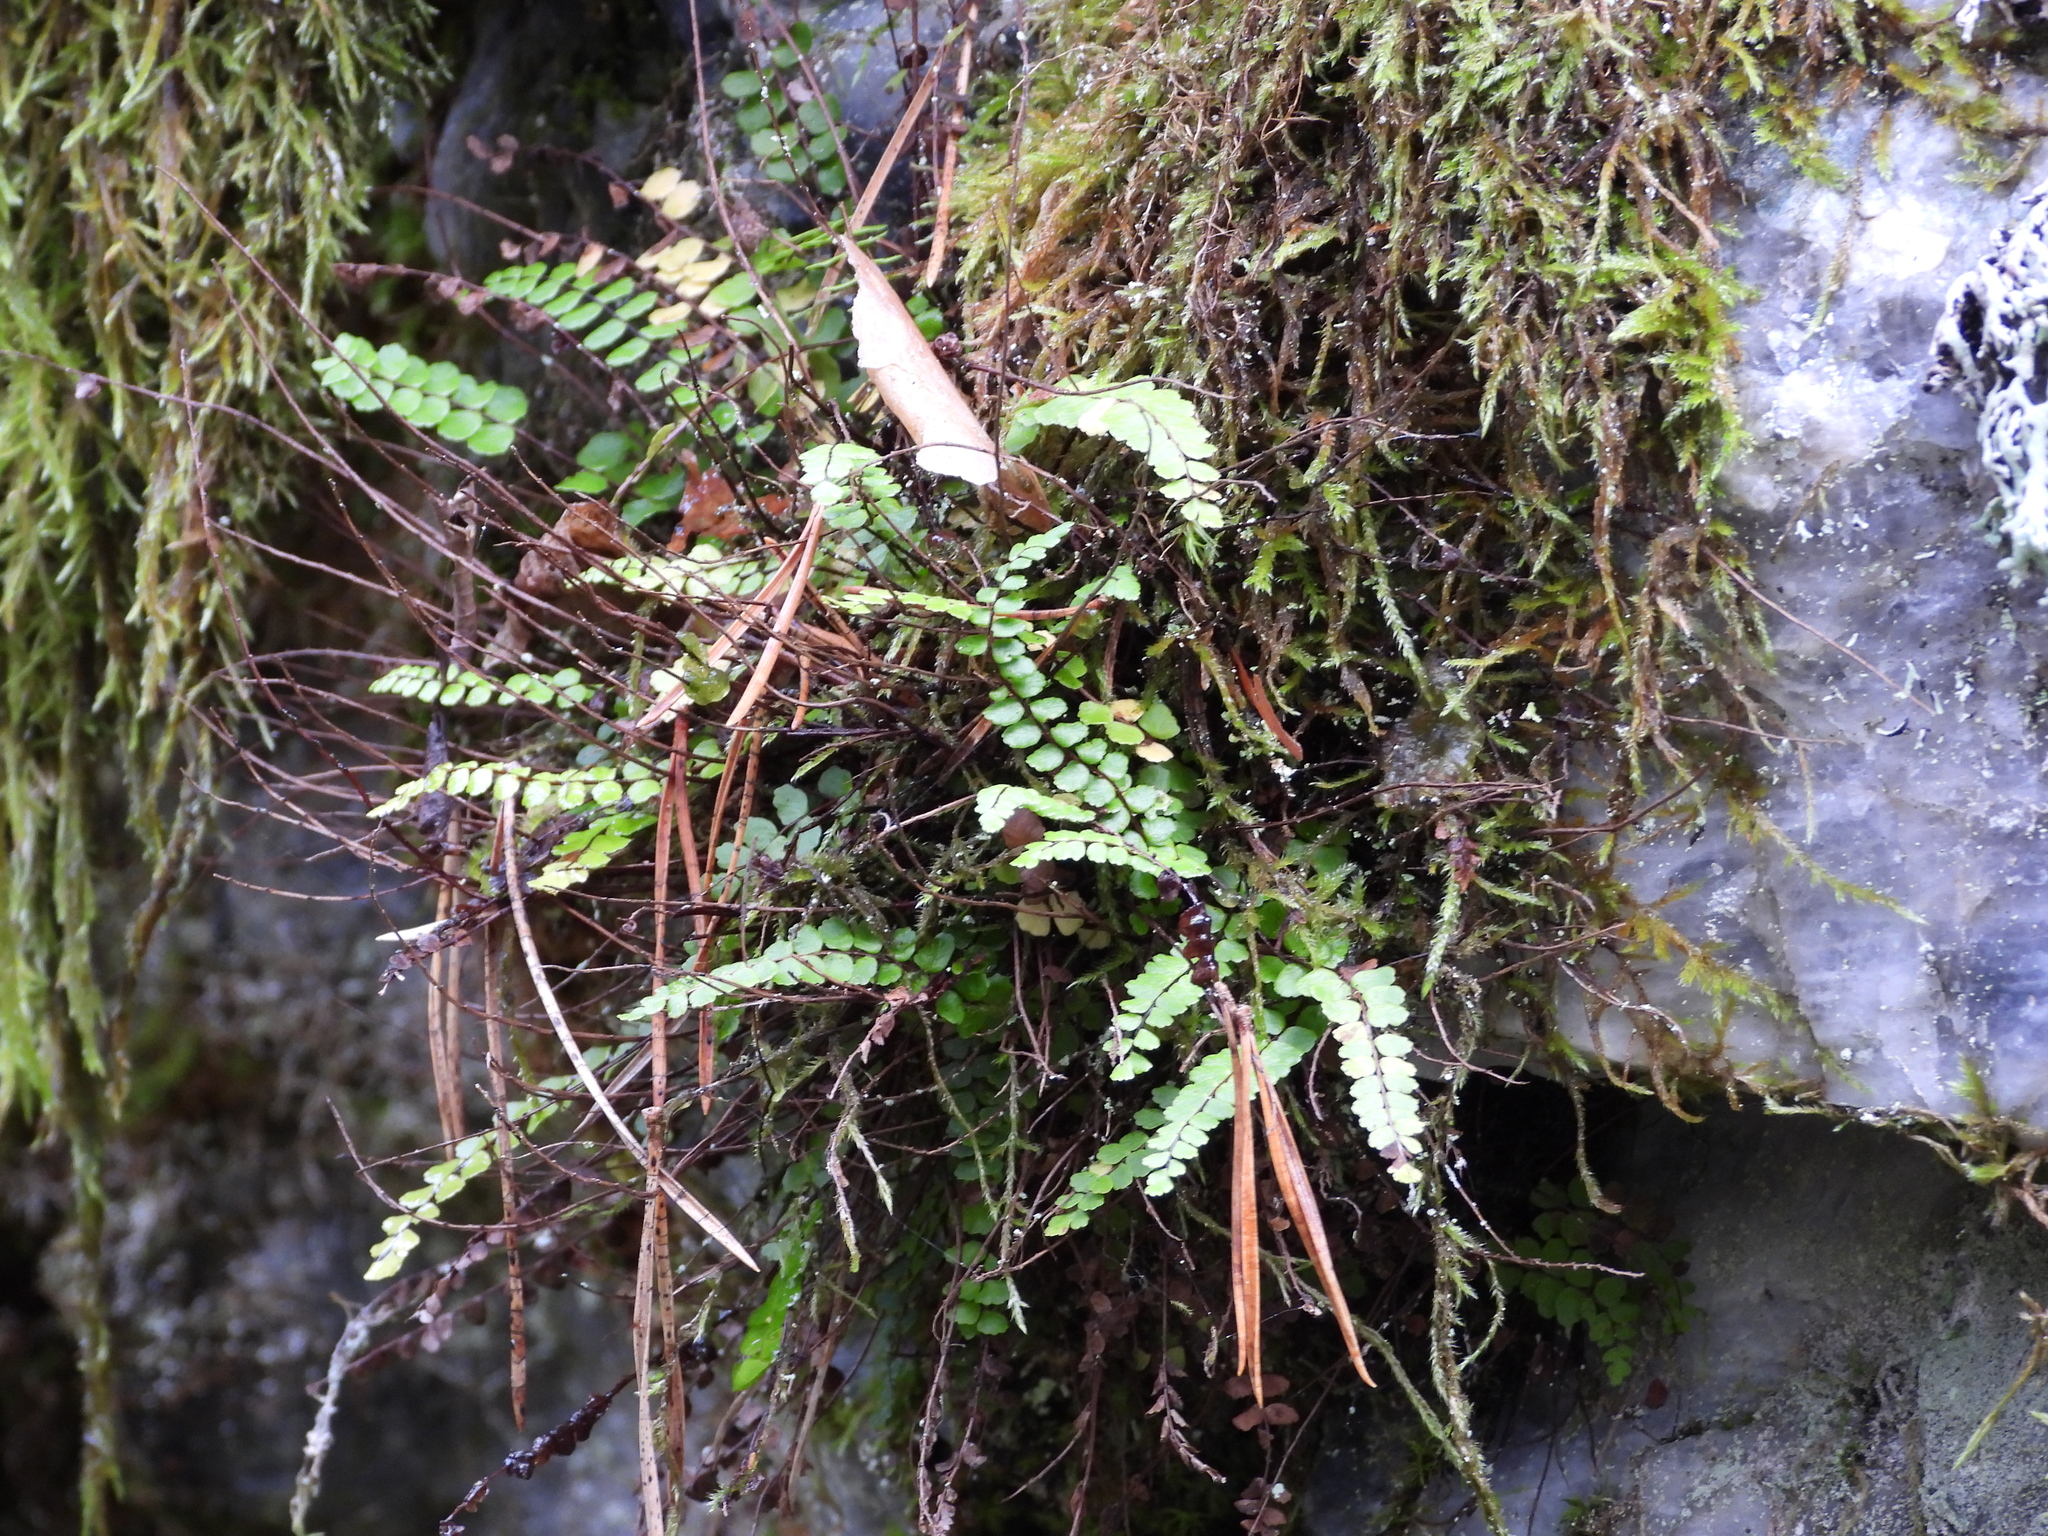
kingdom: Plantae
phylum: Tracheophyta
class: Polypodiopsida
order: Polypodiales
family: Aspleniaceae
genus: Asplenium
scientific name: Asplenium trichomanes
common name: Maidenhair spleenwort
